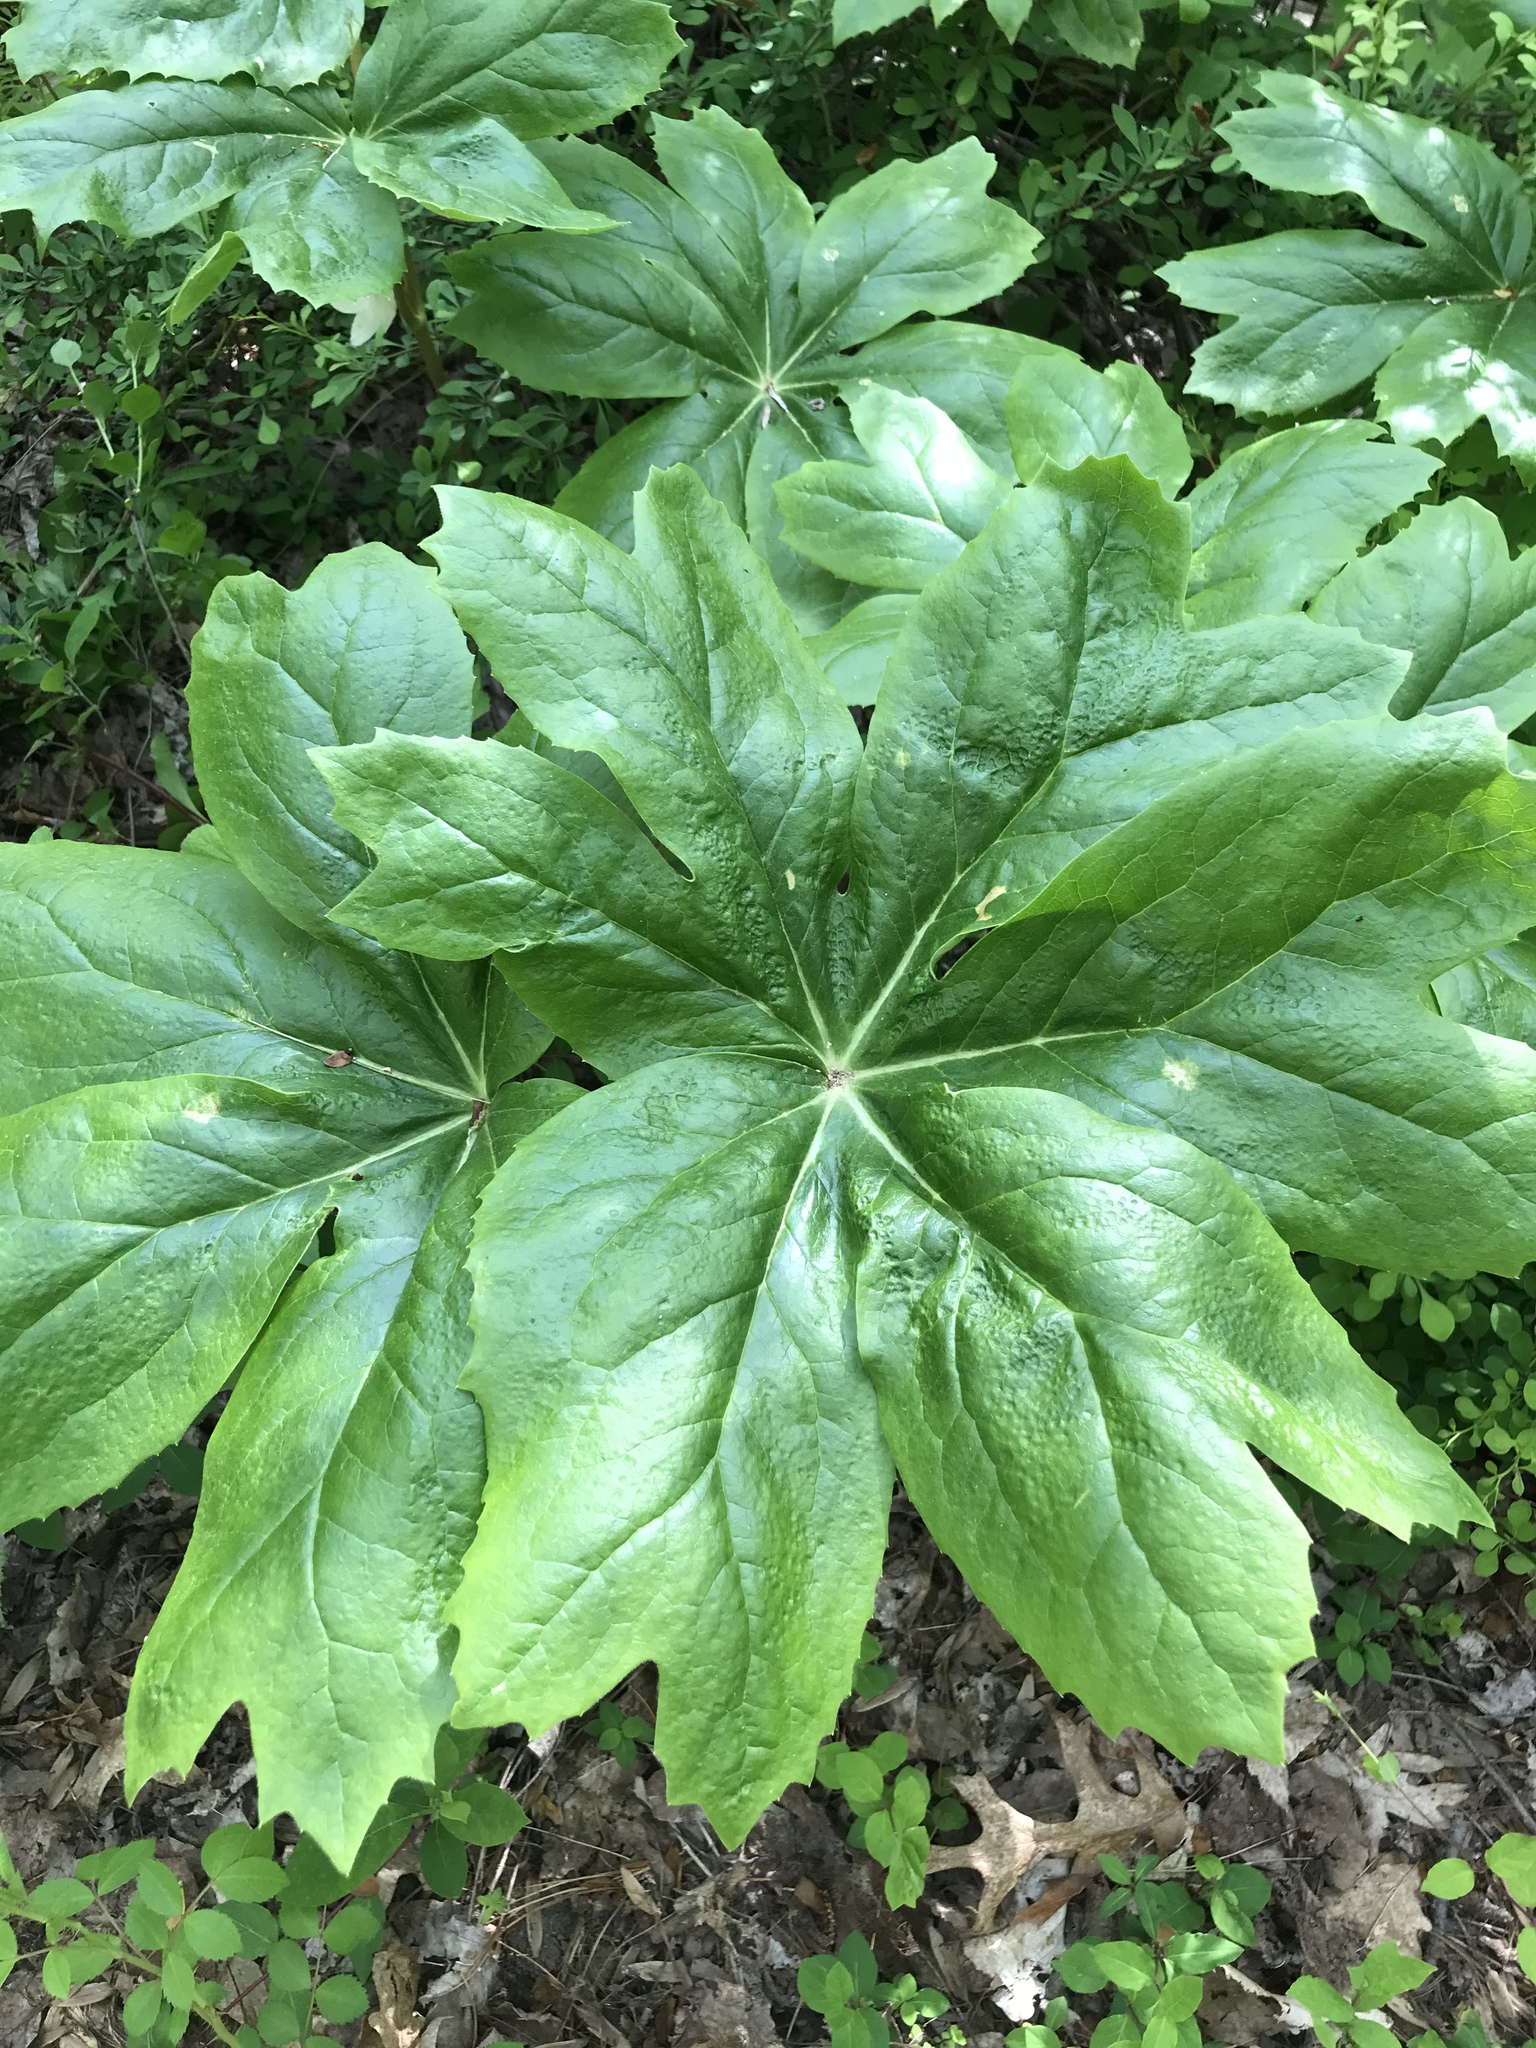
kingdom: Plantae
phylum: Tracheophyta
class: Magnoliopsida
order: Ranunculales
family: Berberidaceae
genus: Podophyllum
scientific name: Podophyllum peltatum
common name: Wild mandrake
